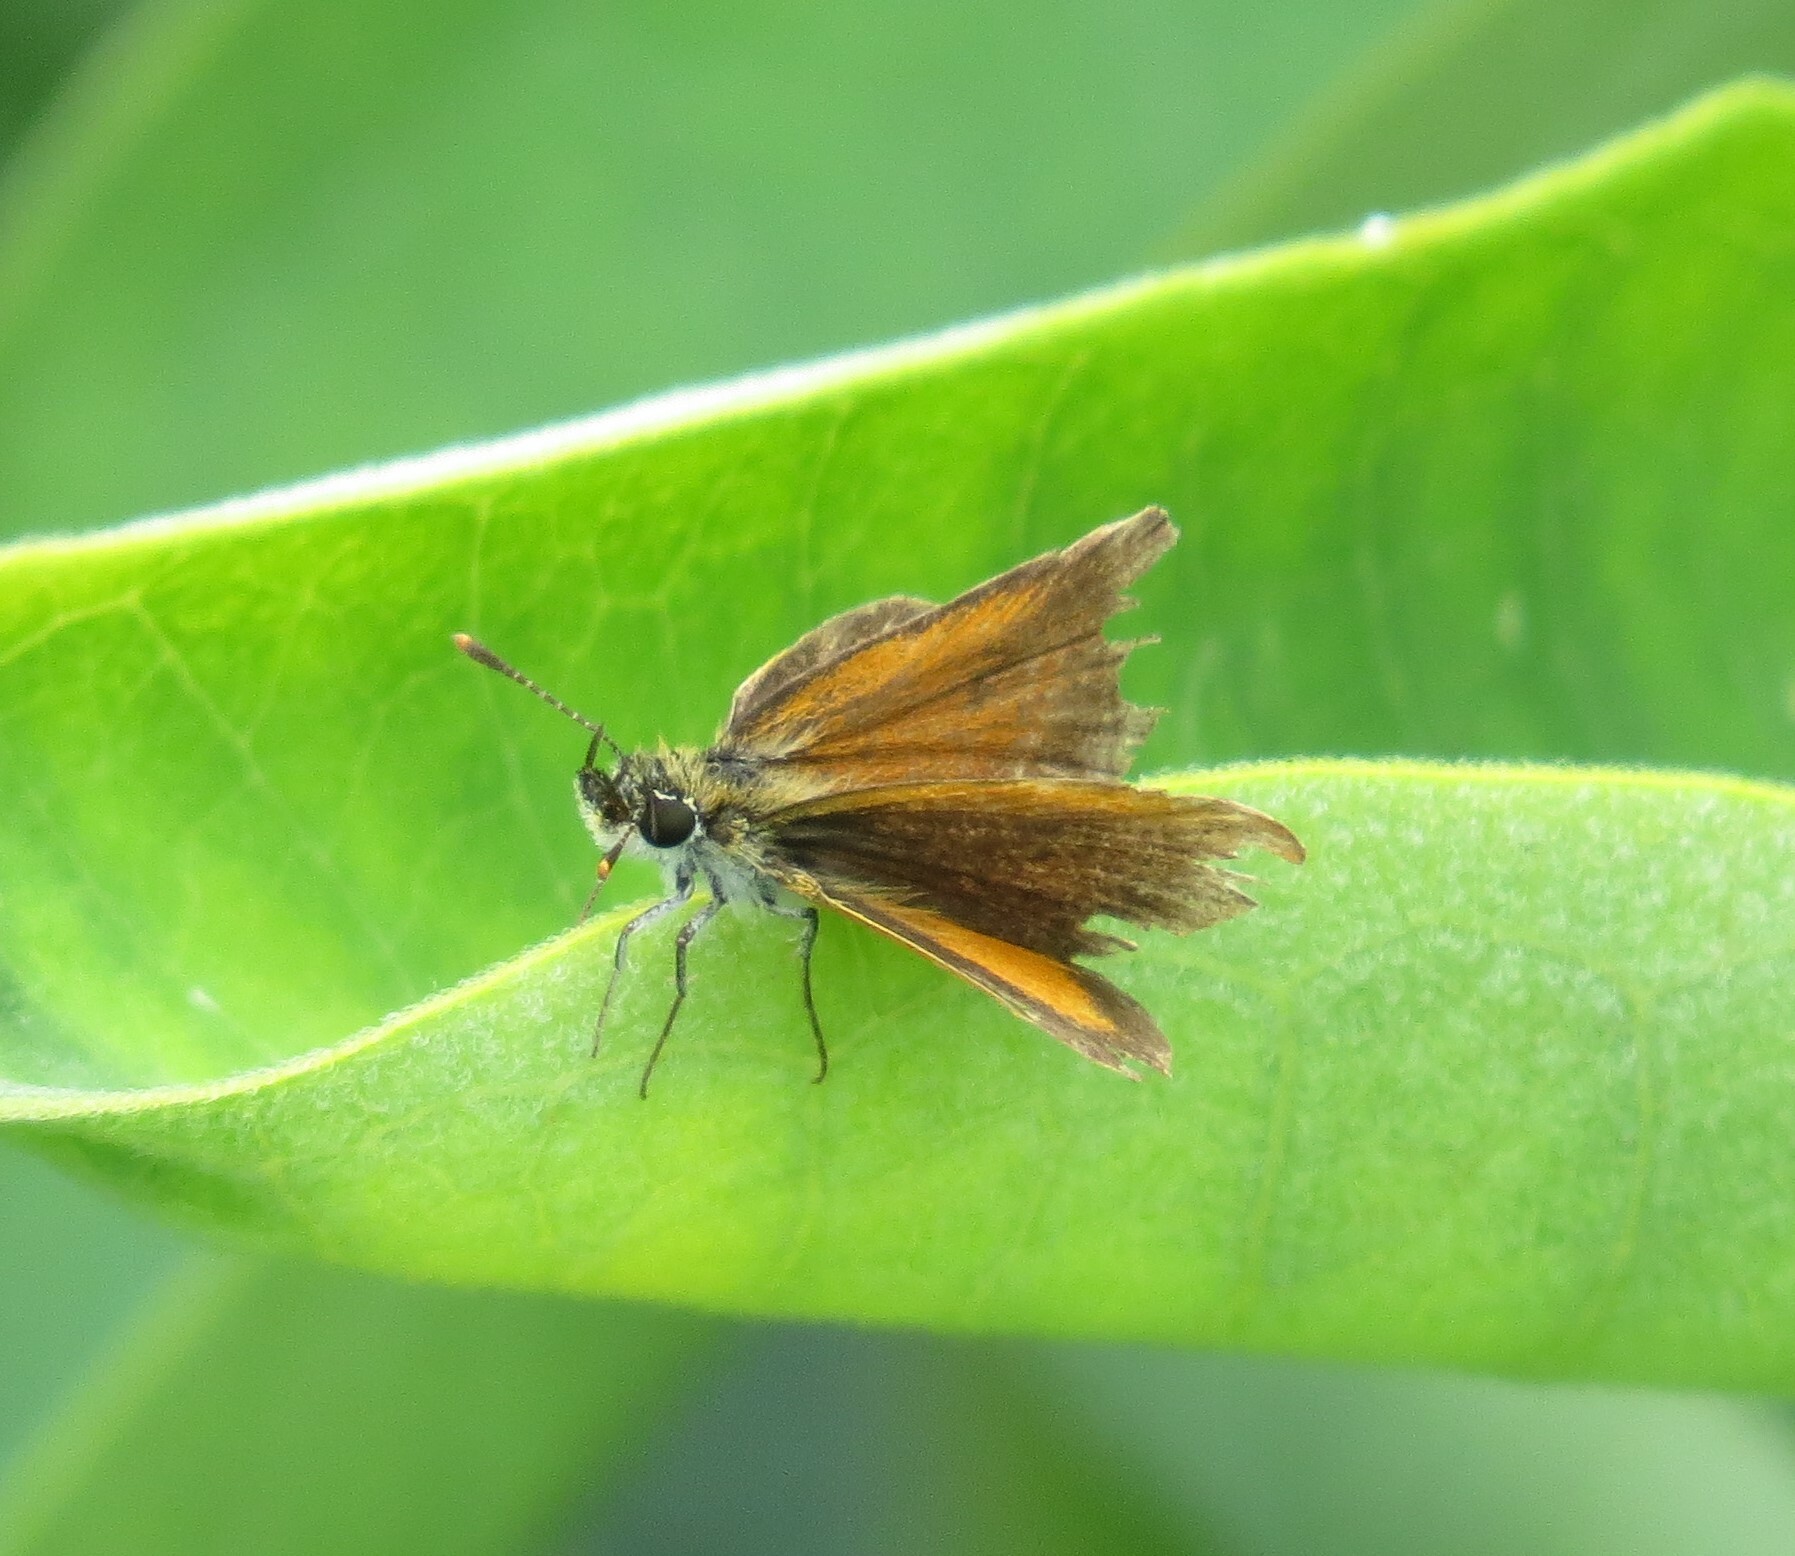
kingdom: Animalia
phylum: Arthropoda
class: Insecta
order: Lepidoptera
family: Hesperiidae
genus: Ancyloxypha
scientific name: Ancyloxypha numitor
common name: Least skipper
